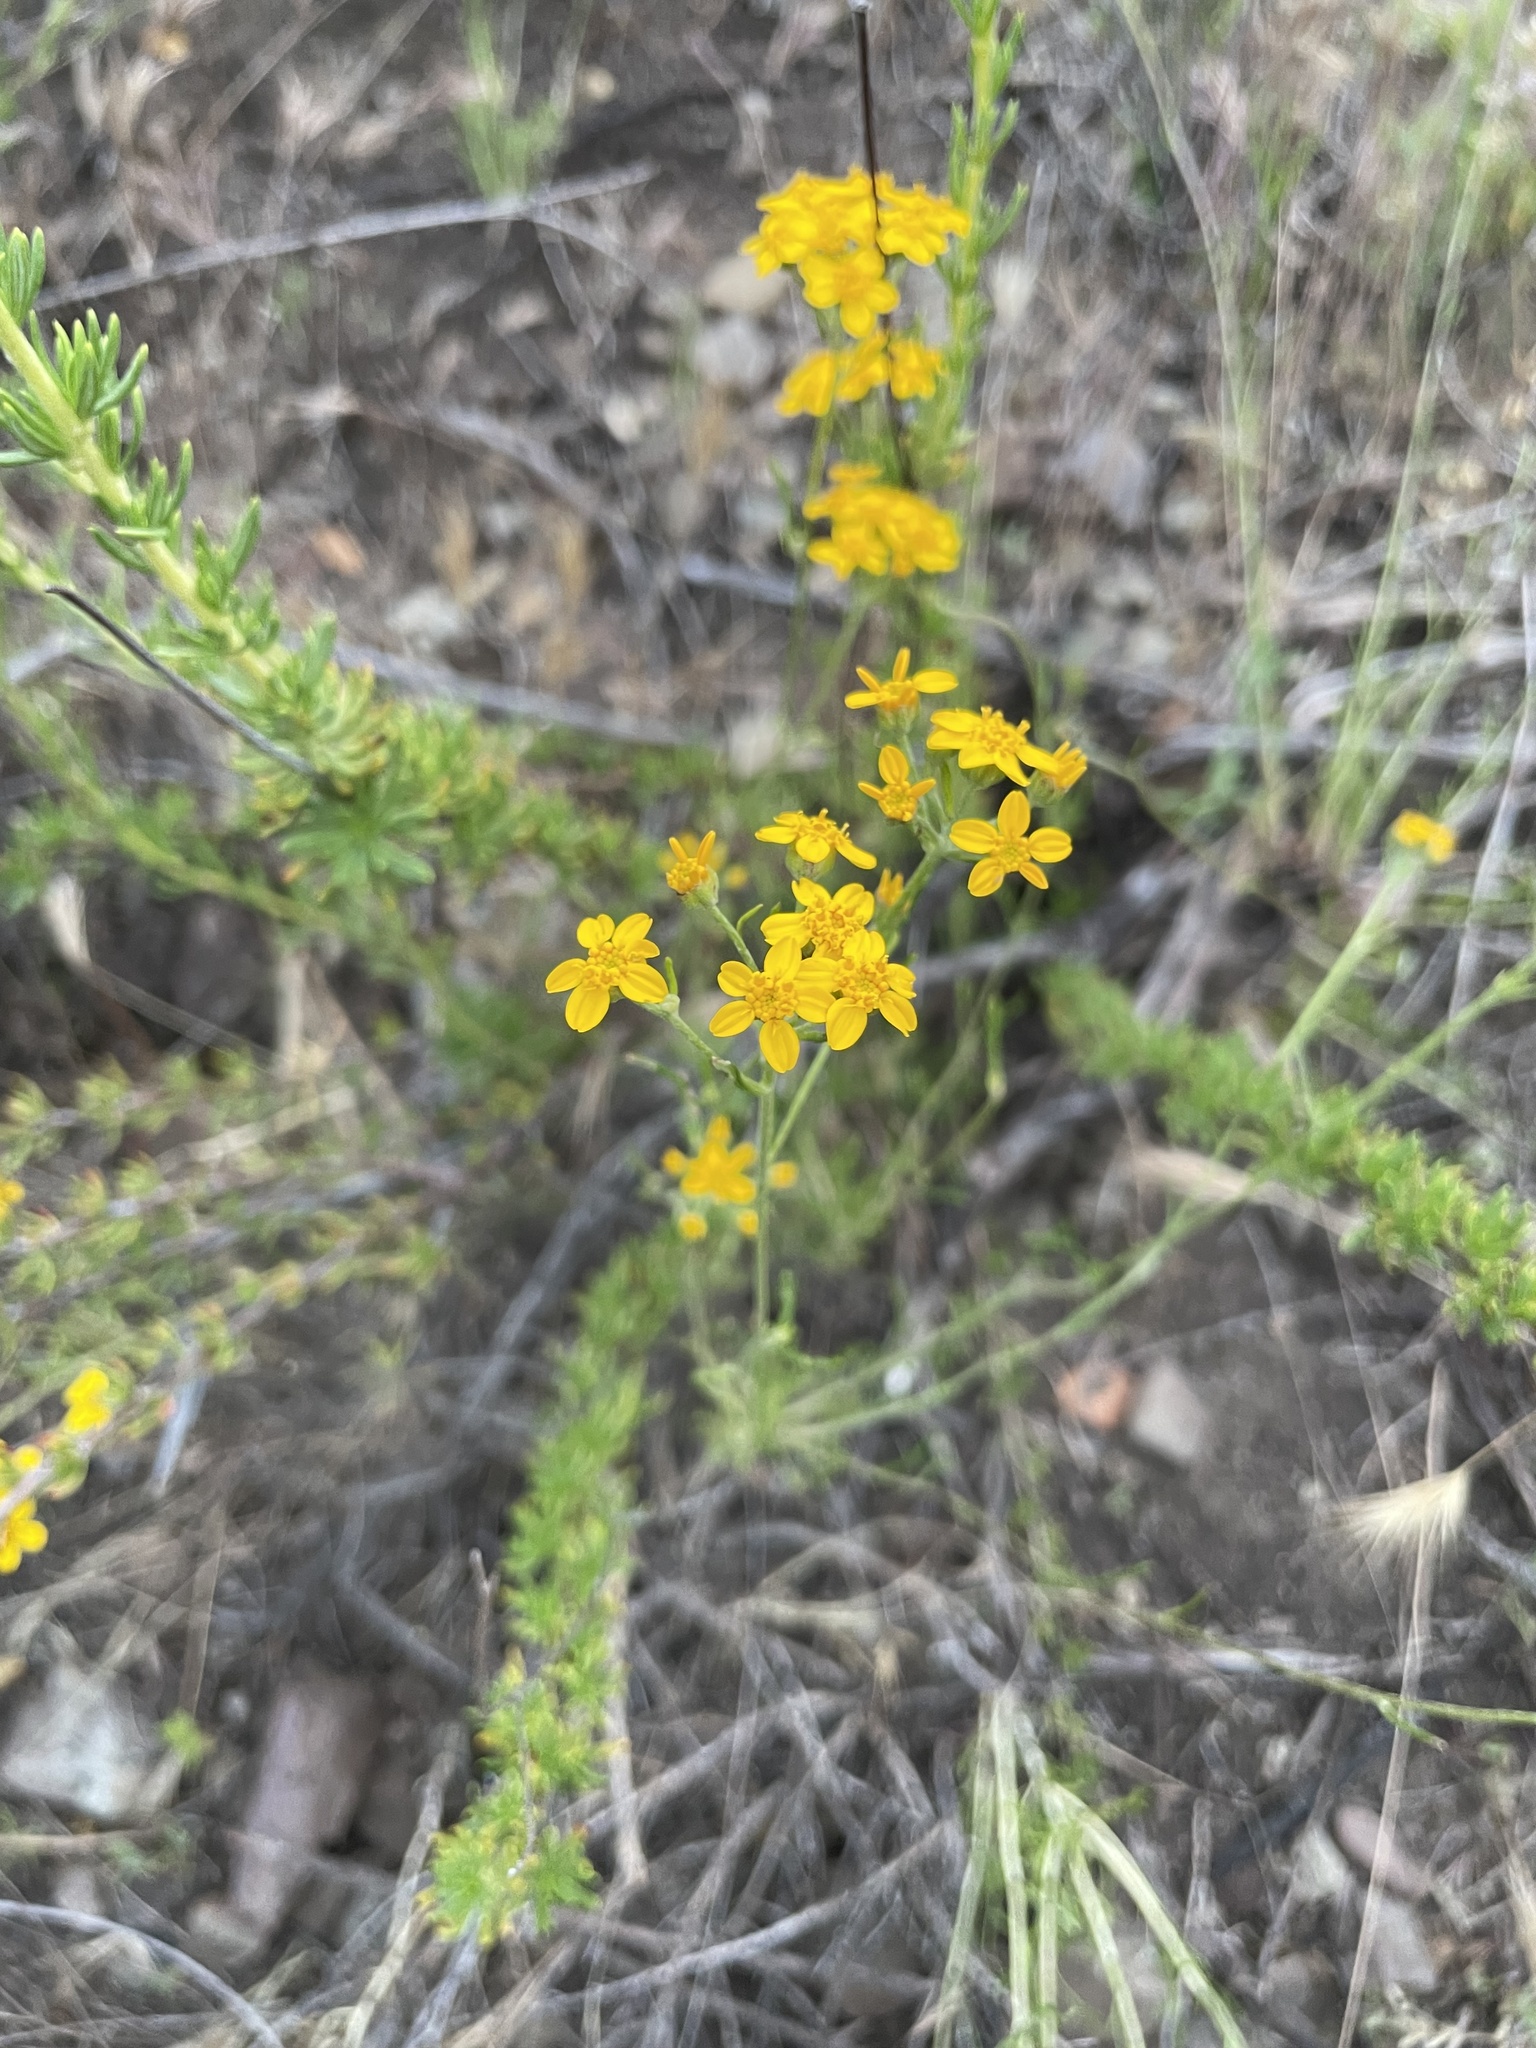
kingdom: Plantae
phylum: Tracheophyta
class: Magnoliopsida
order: Asterales
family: Asteraceae
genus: Eriophyllum
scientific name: Eriophyllum confertiflorum
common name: Golden-yarrow
